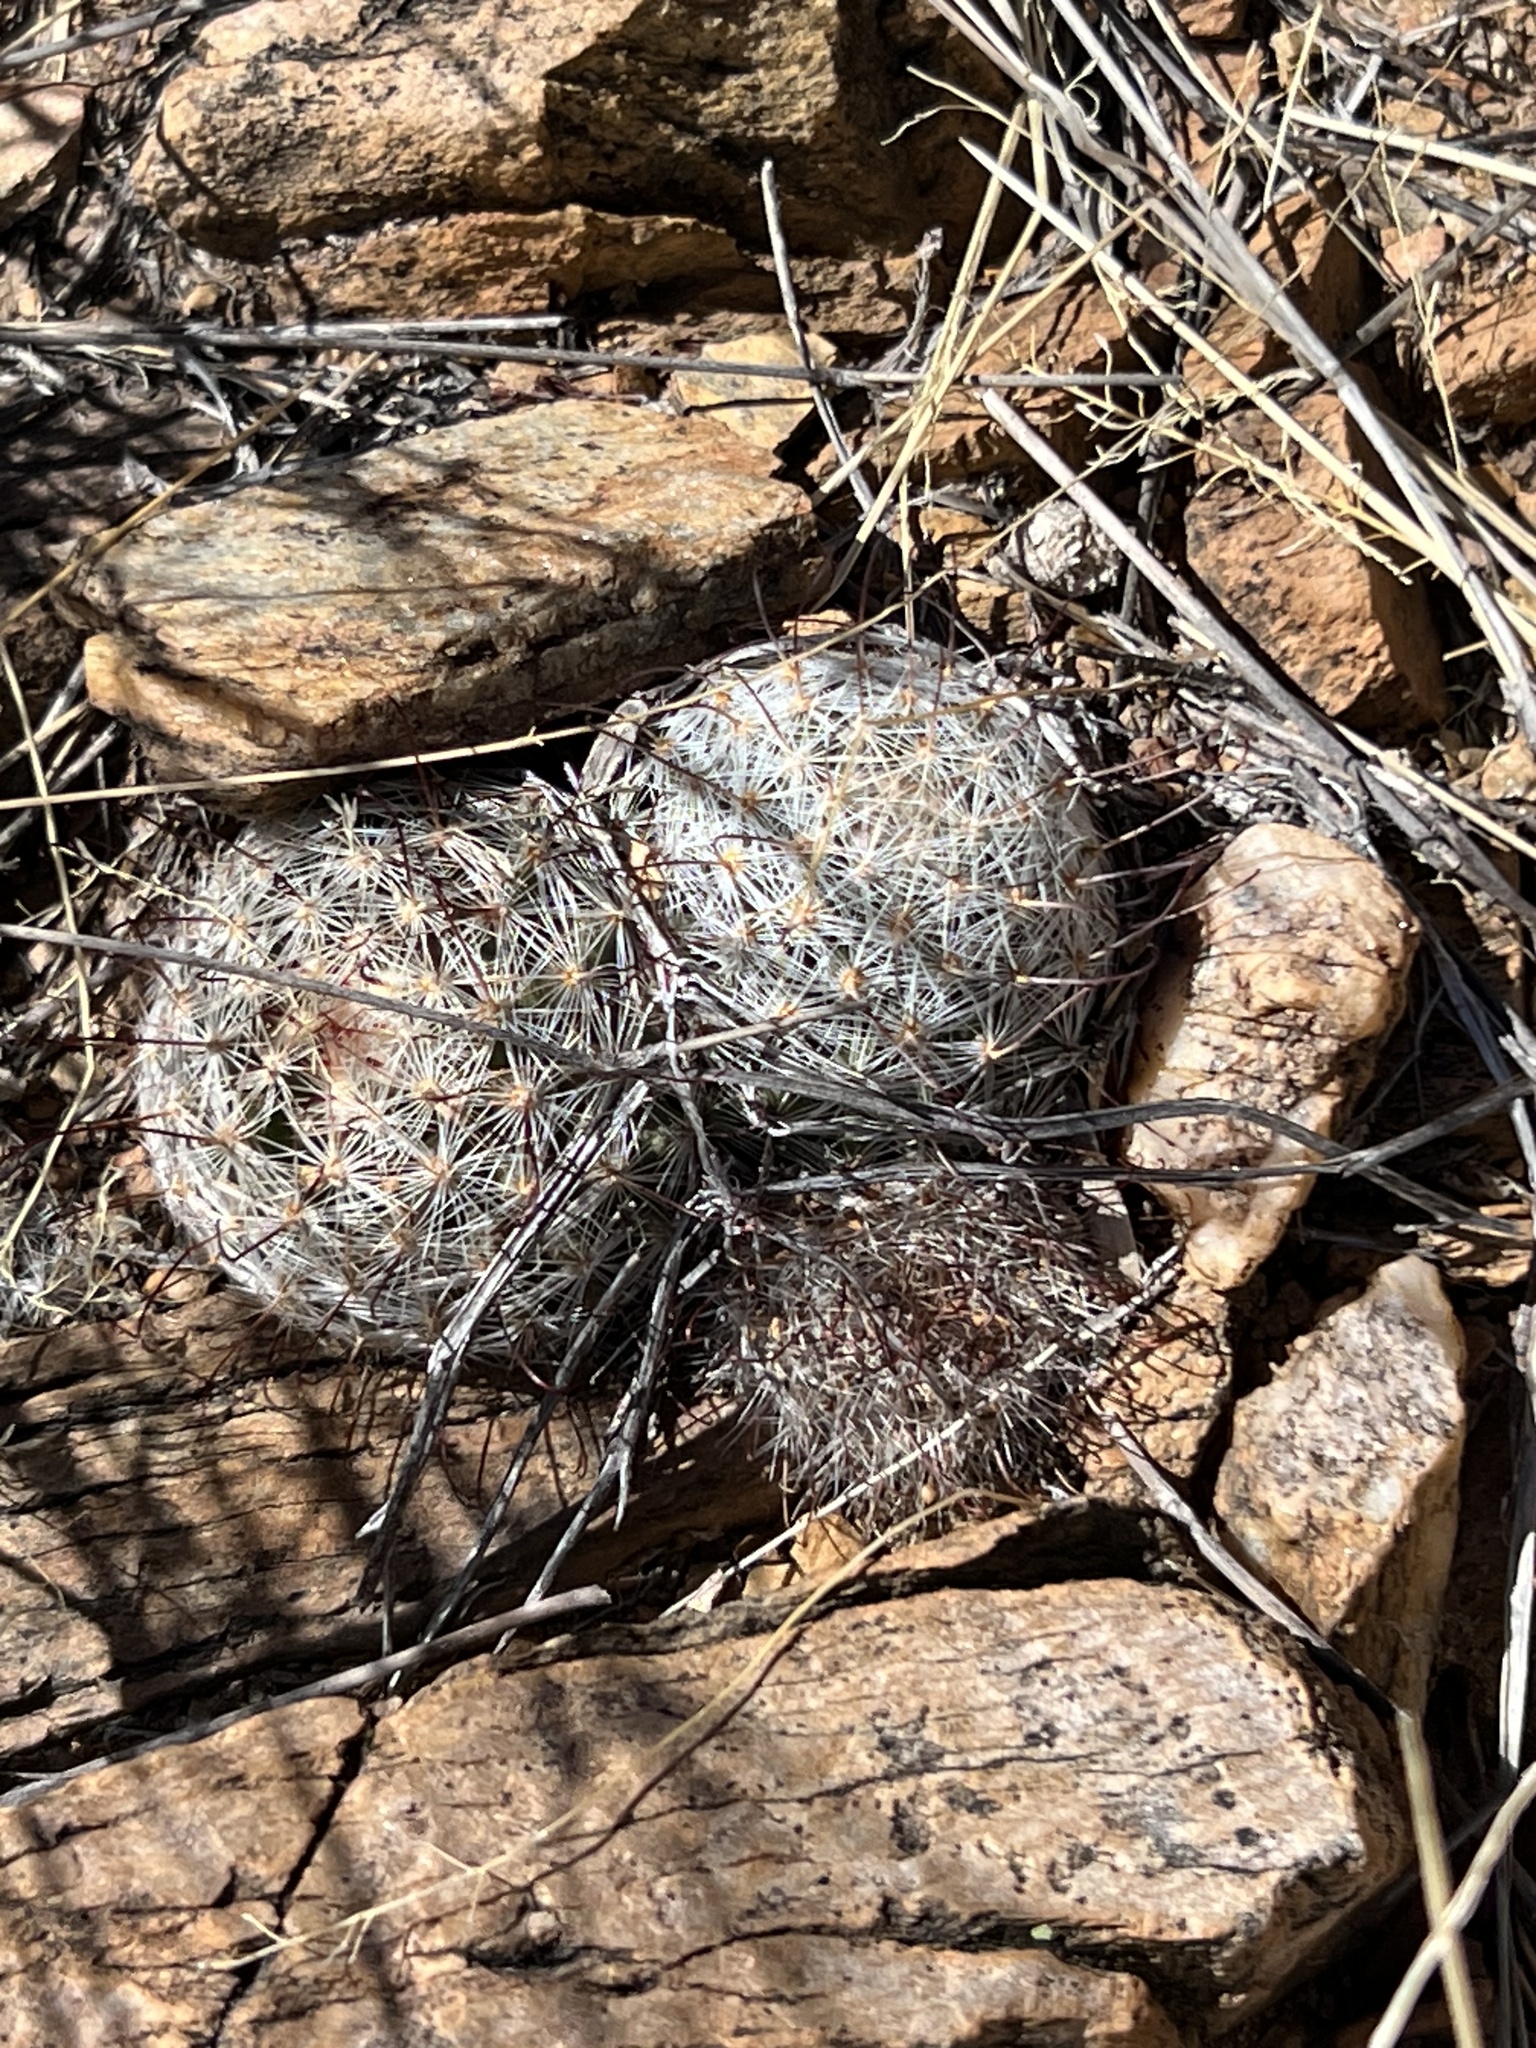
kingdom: Plantae
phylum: Tracheophyta
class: Magnoliopsida
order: Caryophyllales
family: Cactaceae
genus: Cochemiea
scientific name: Cochemiea grahamii
